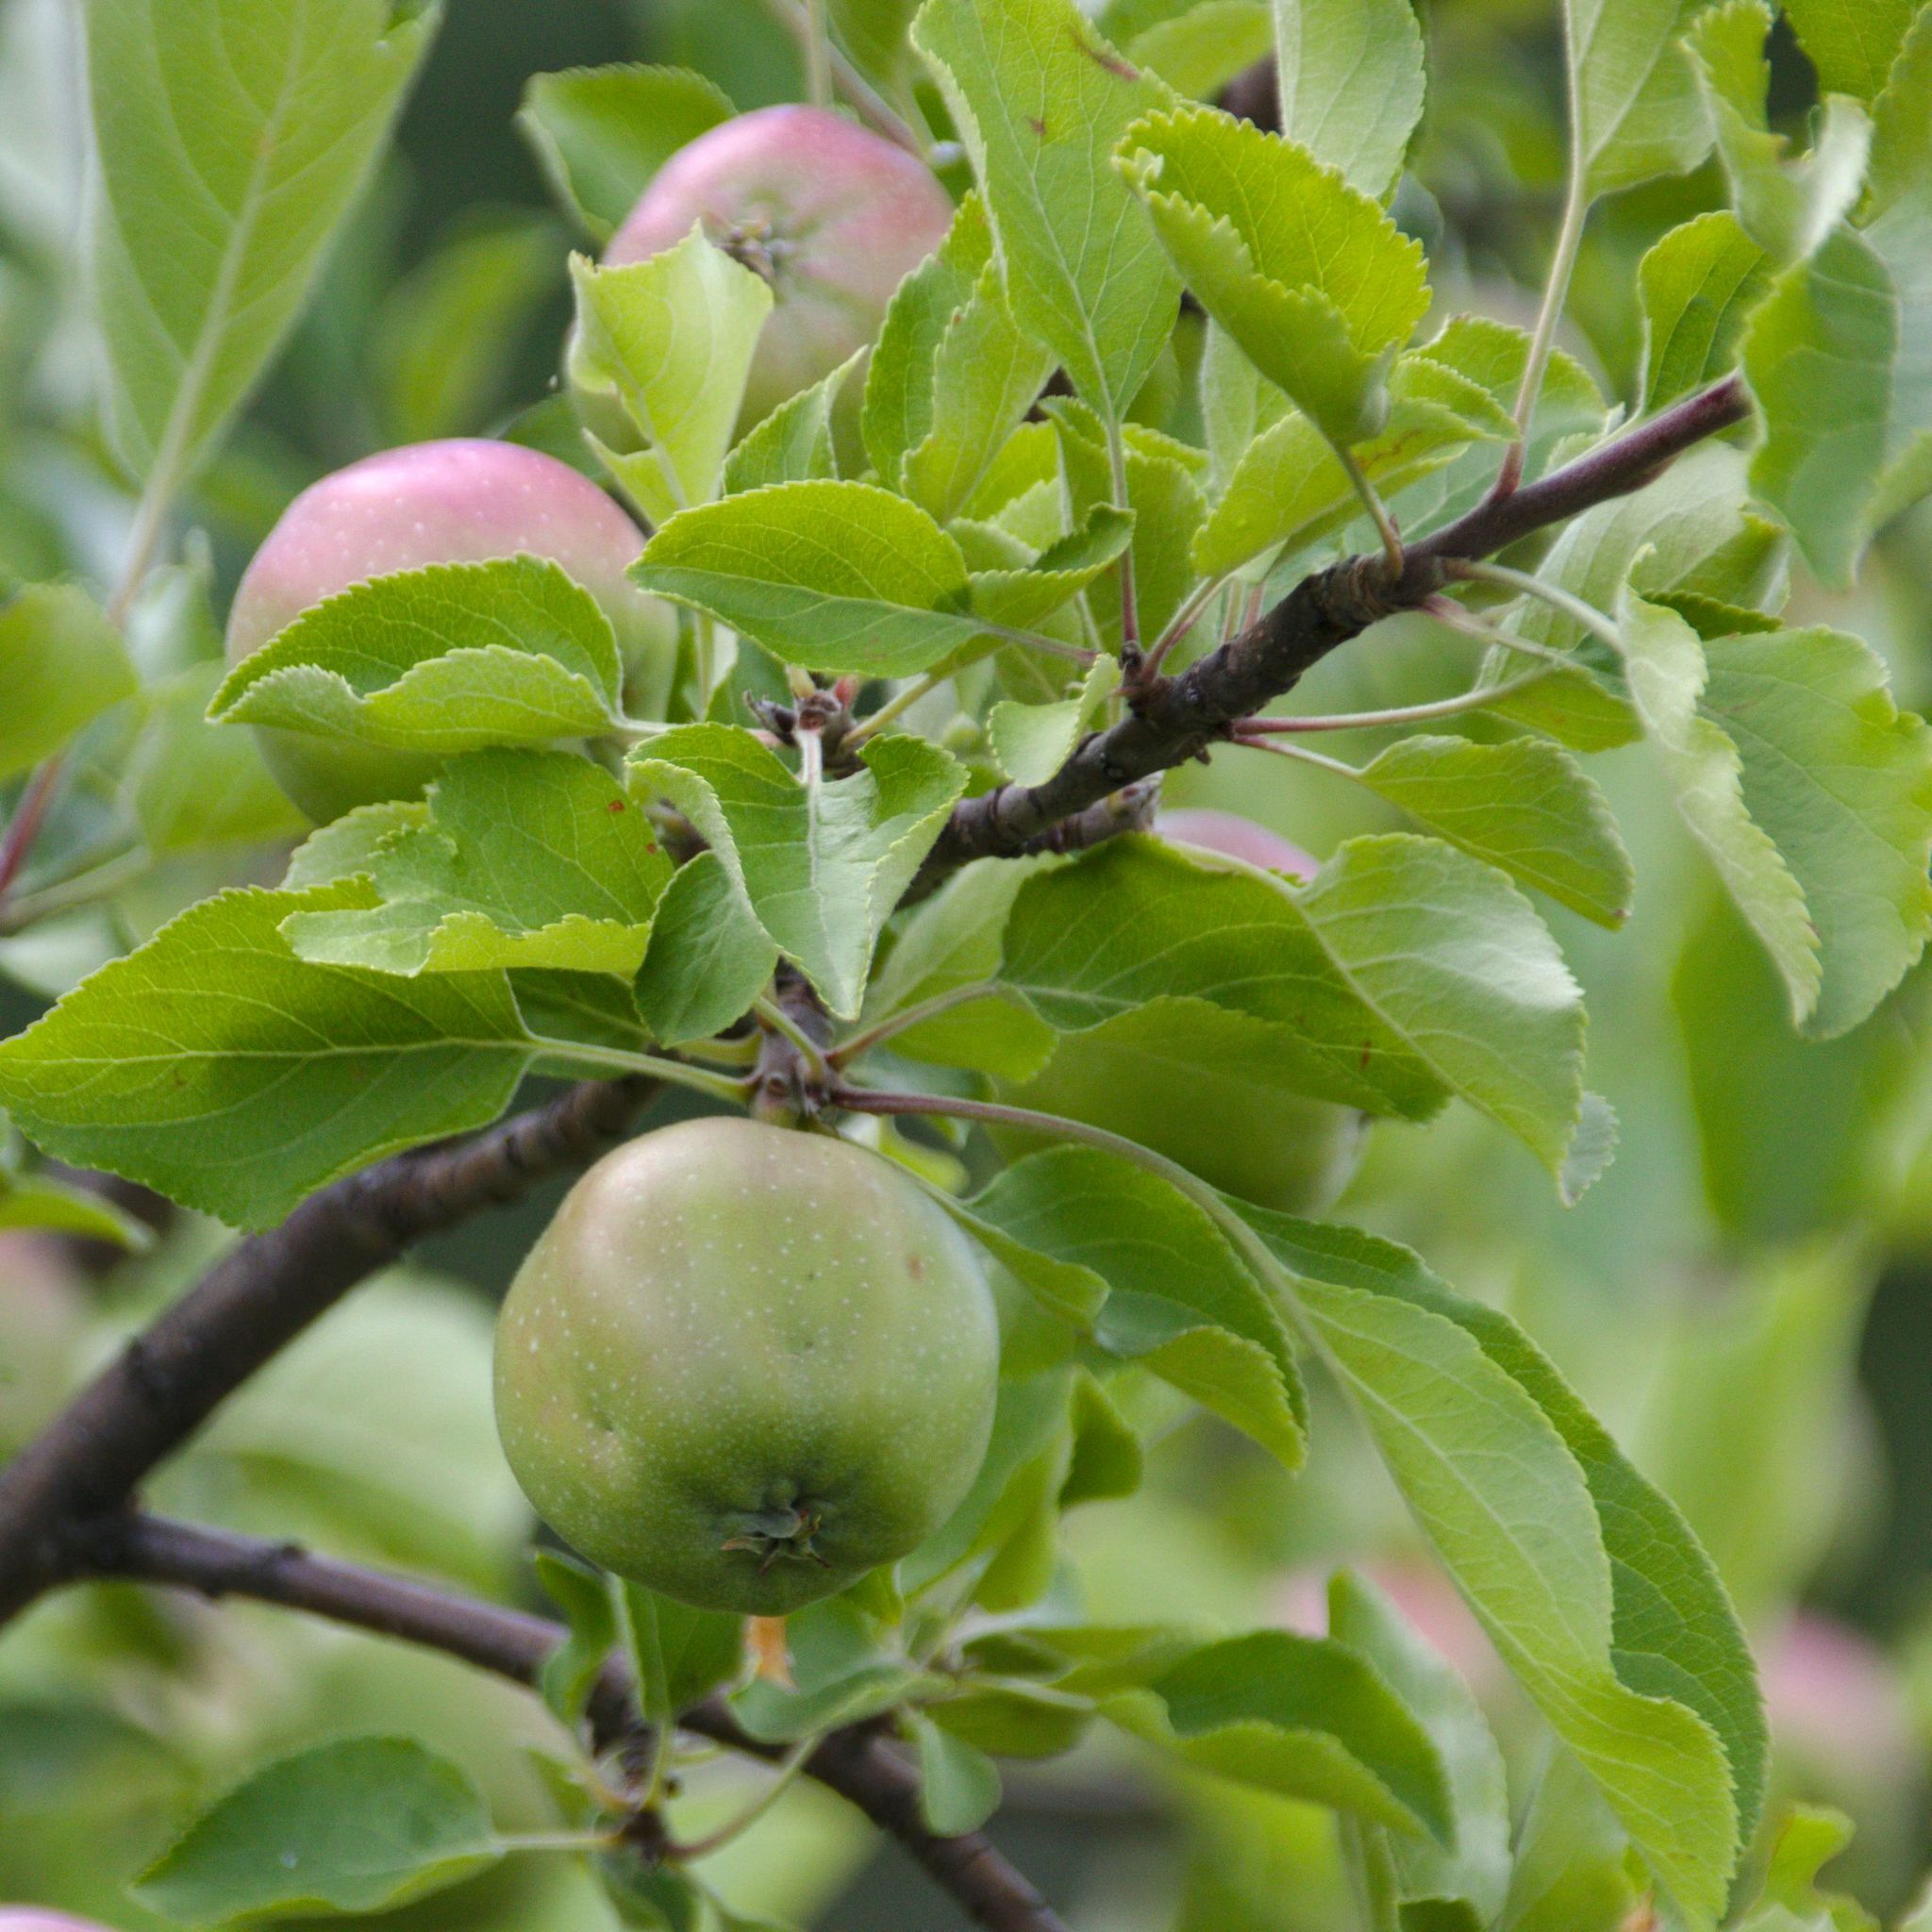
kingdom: Plantae
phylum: Tracheophyta
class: Magnoliopsida
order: Rosales
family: Rosaceae
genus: Malus
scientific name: Malus domestica
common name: Apple
